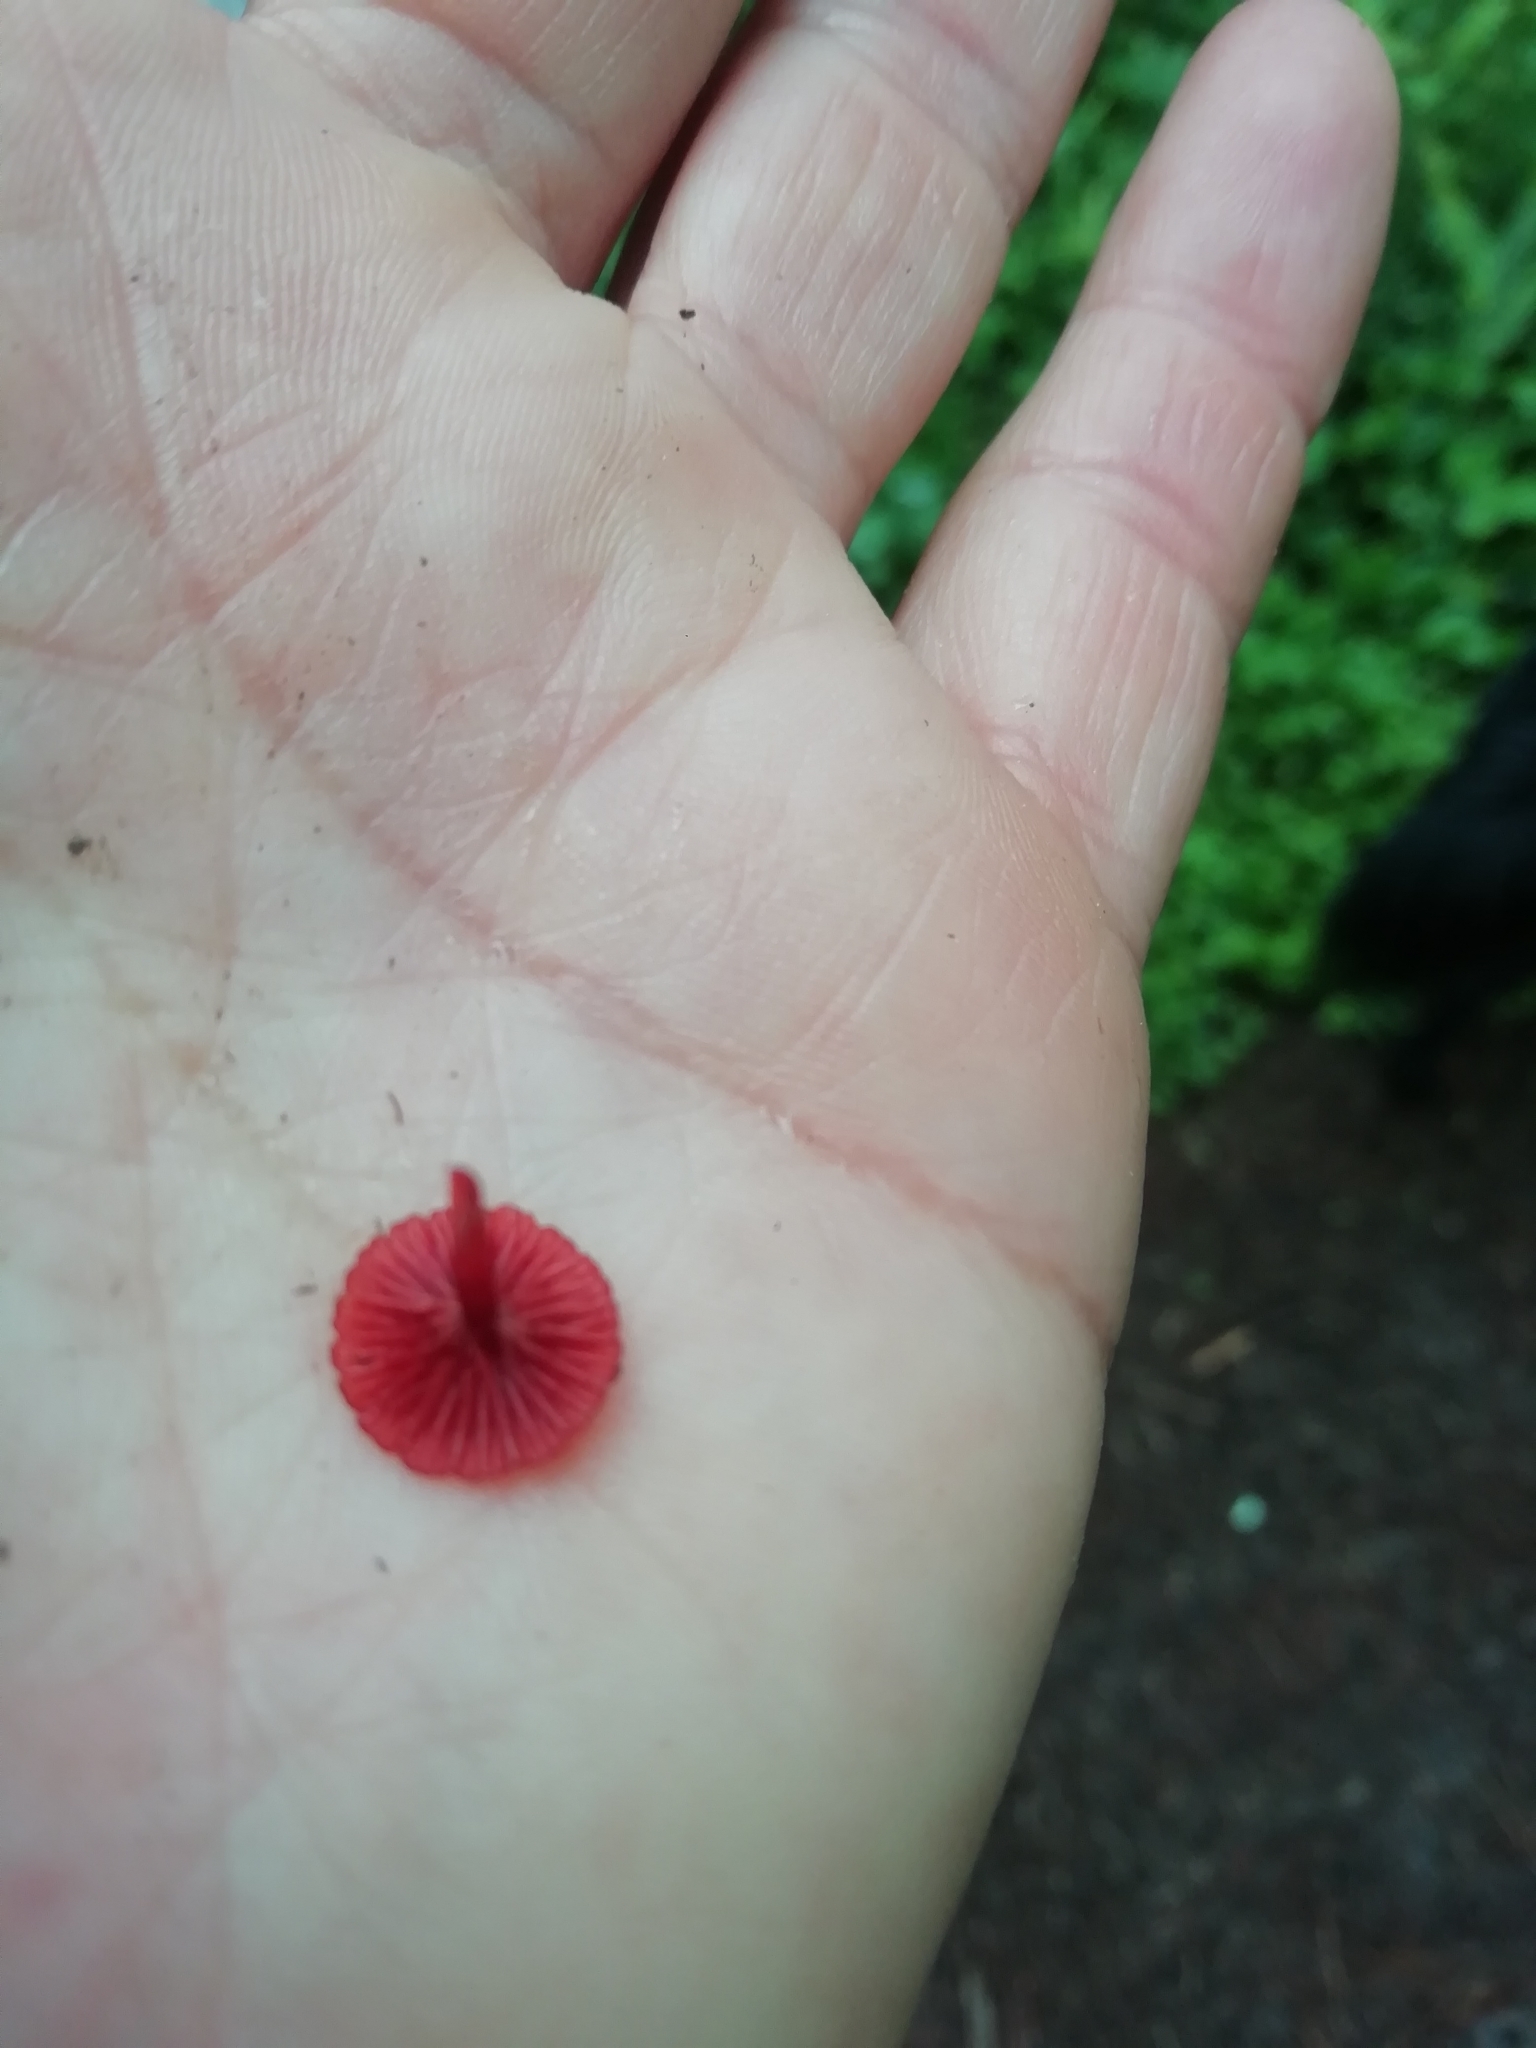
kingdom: Fungi
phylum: Basidiomycota
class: Agaricomycetes
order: Agaricales
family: Mycenaceae
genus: Cruentomycena
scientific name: Cruentomycena viscidocruenta
